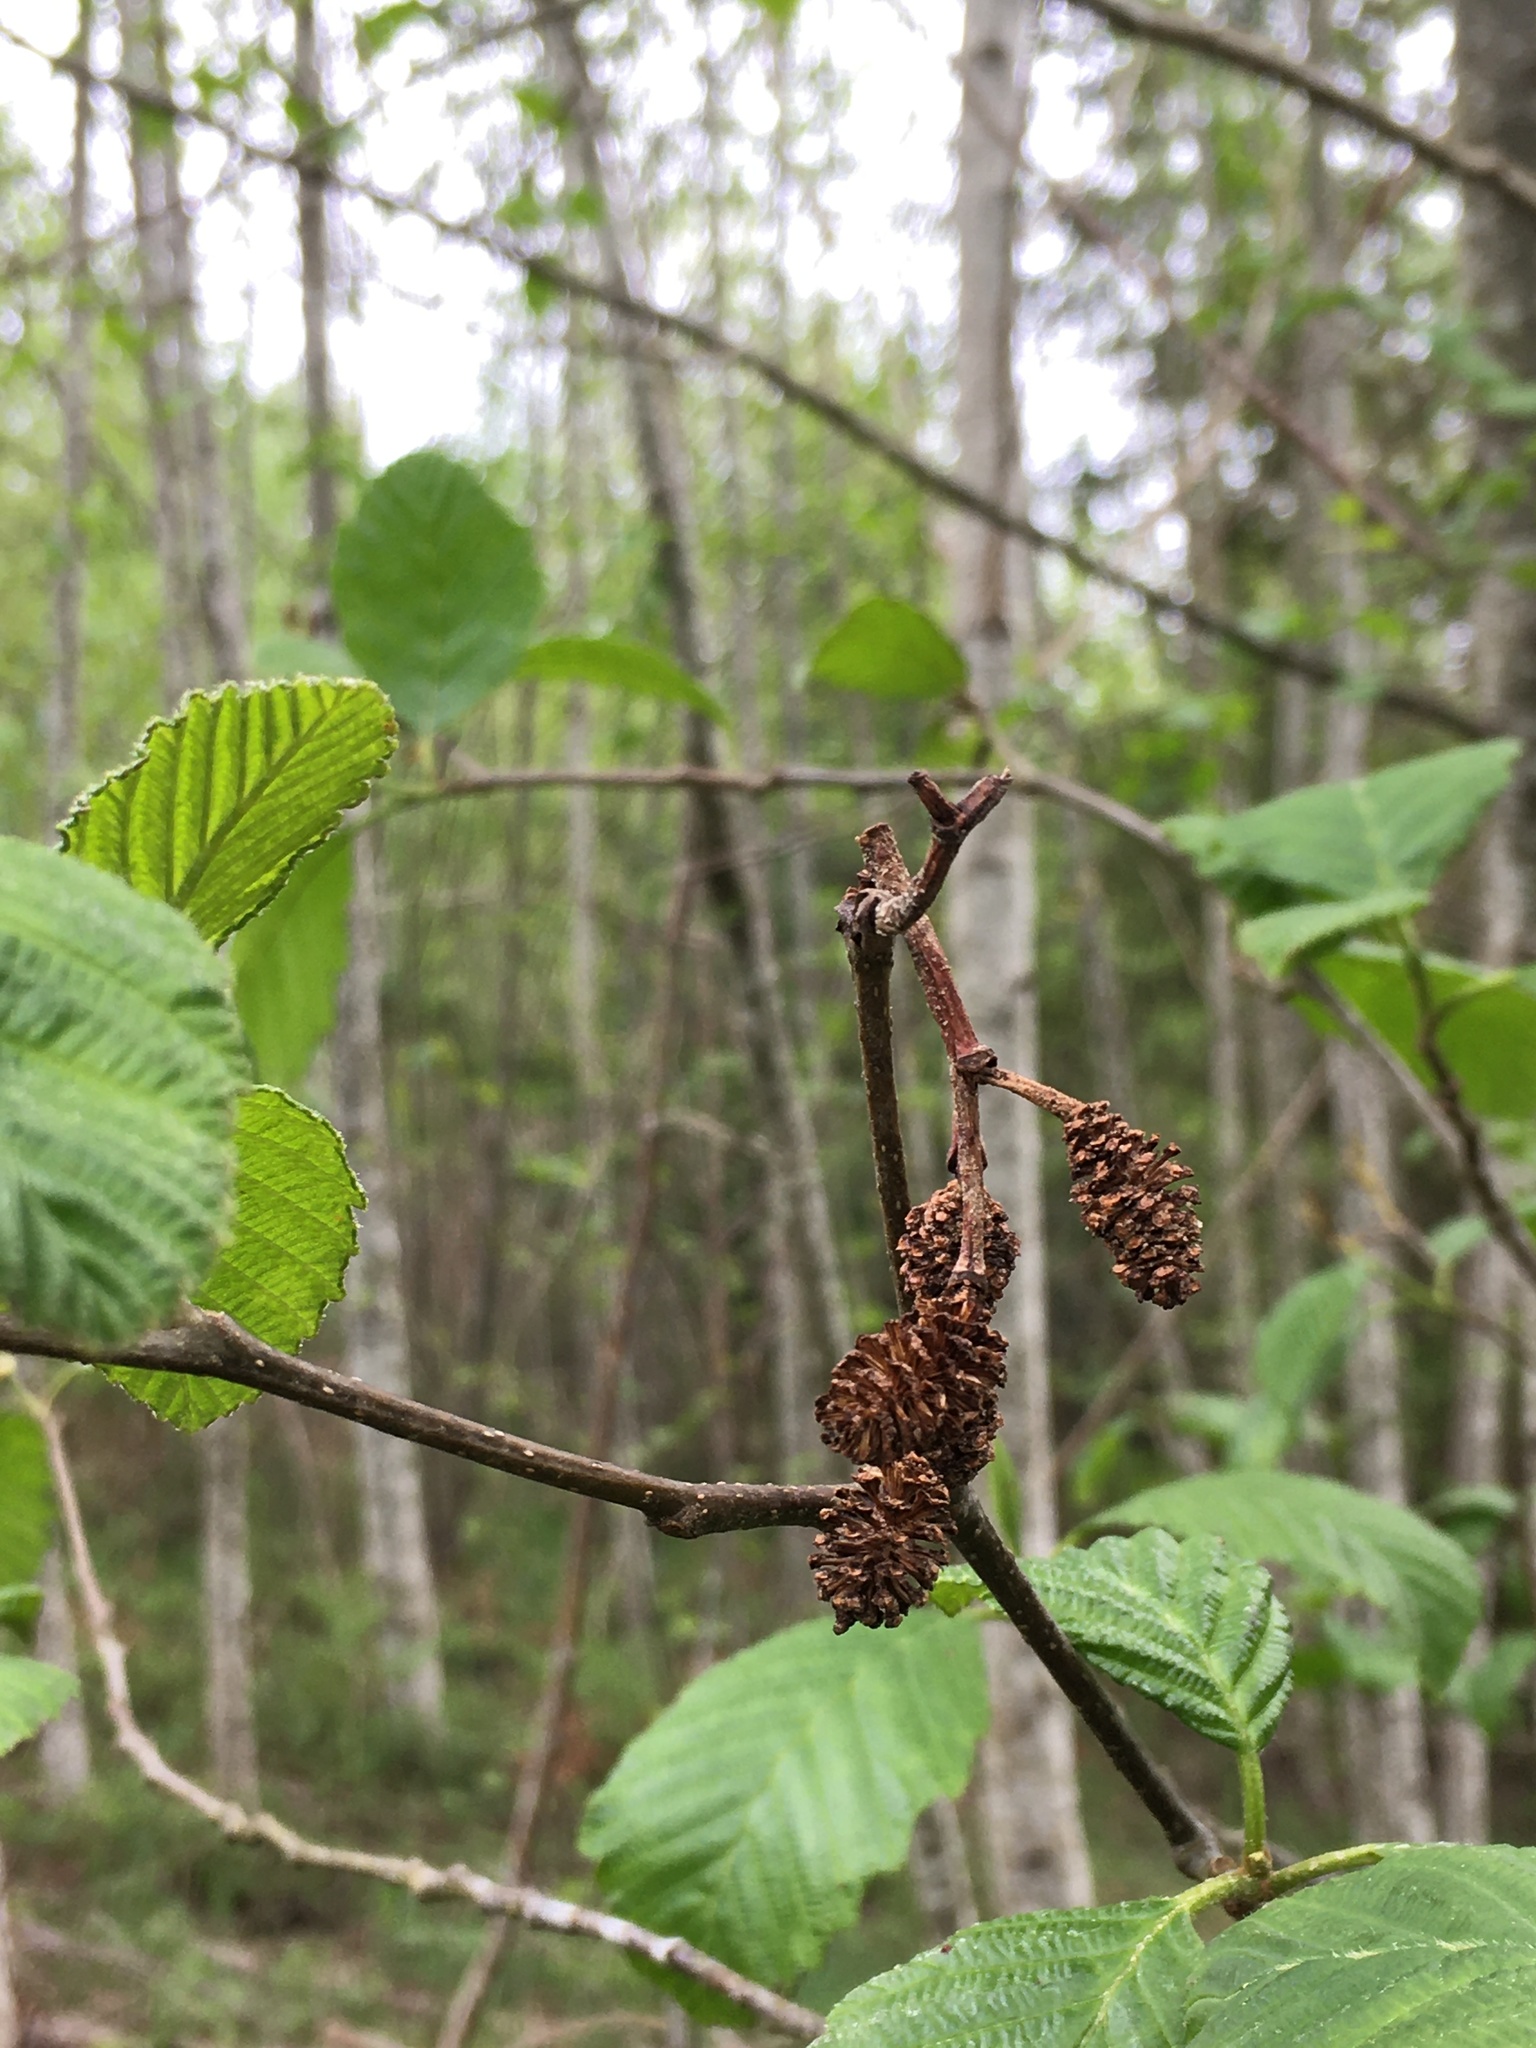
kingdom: Plantae
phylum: Tracheophyta
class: Magnoliopsida
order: Fagales
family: Betulaceae
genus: Alnus
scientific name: Alnus rubra
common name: Red alder
